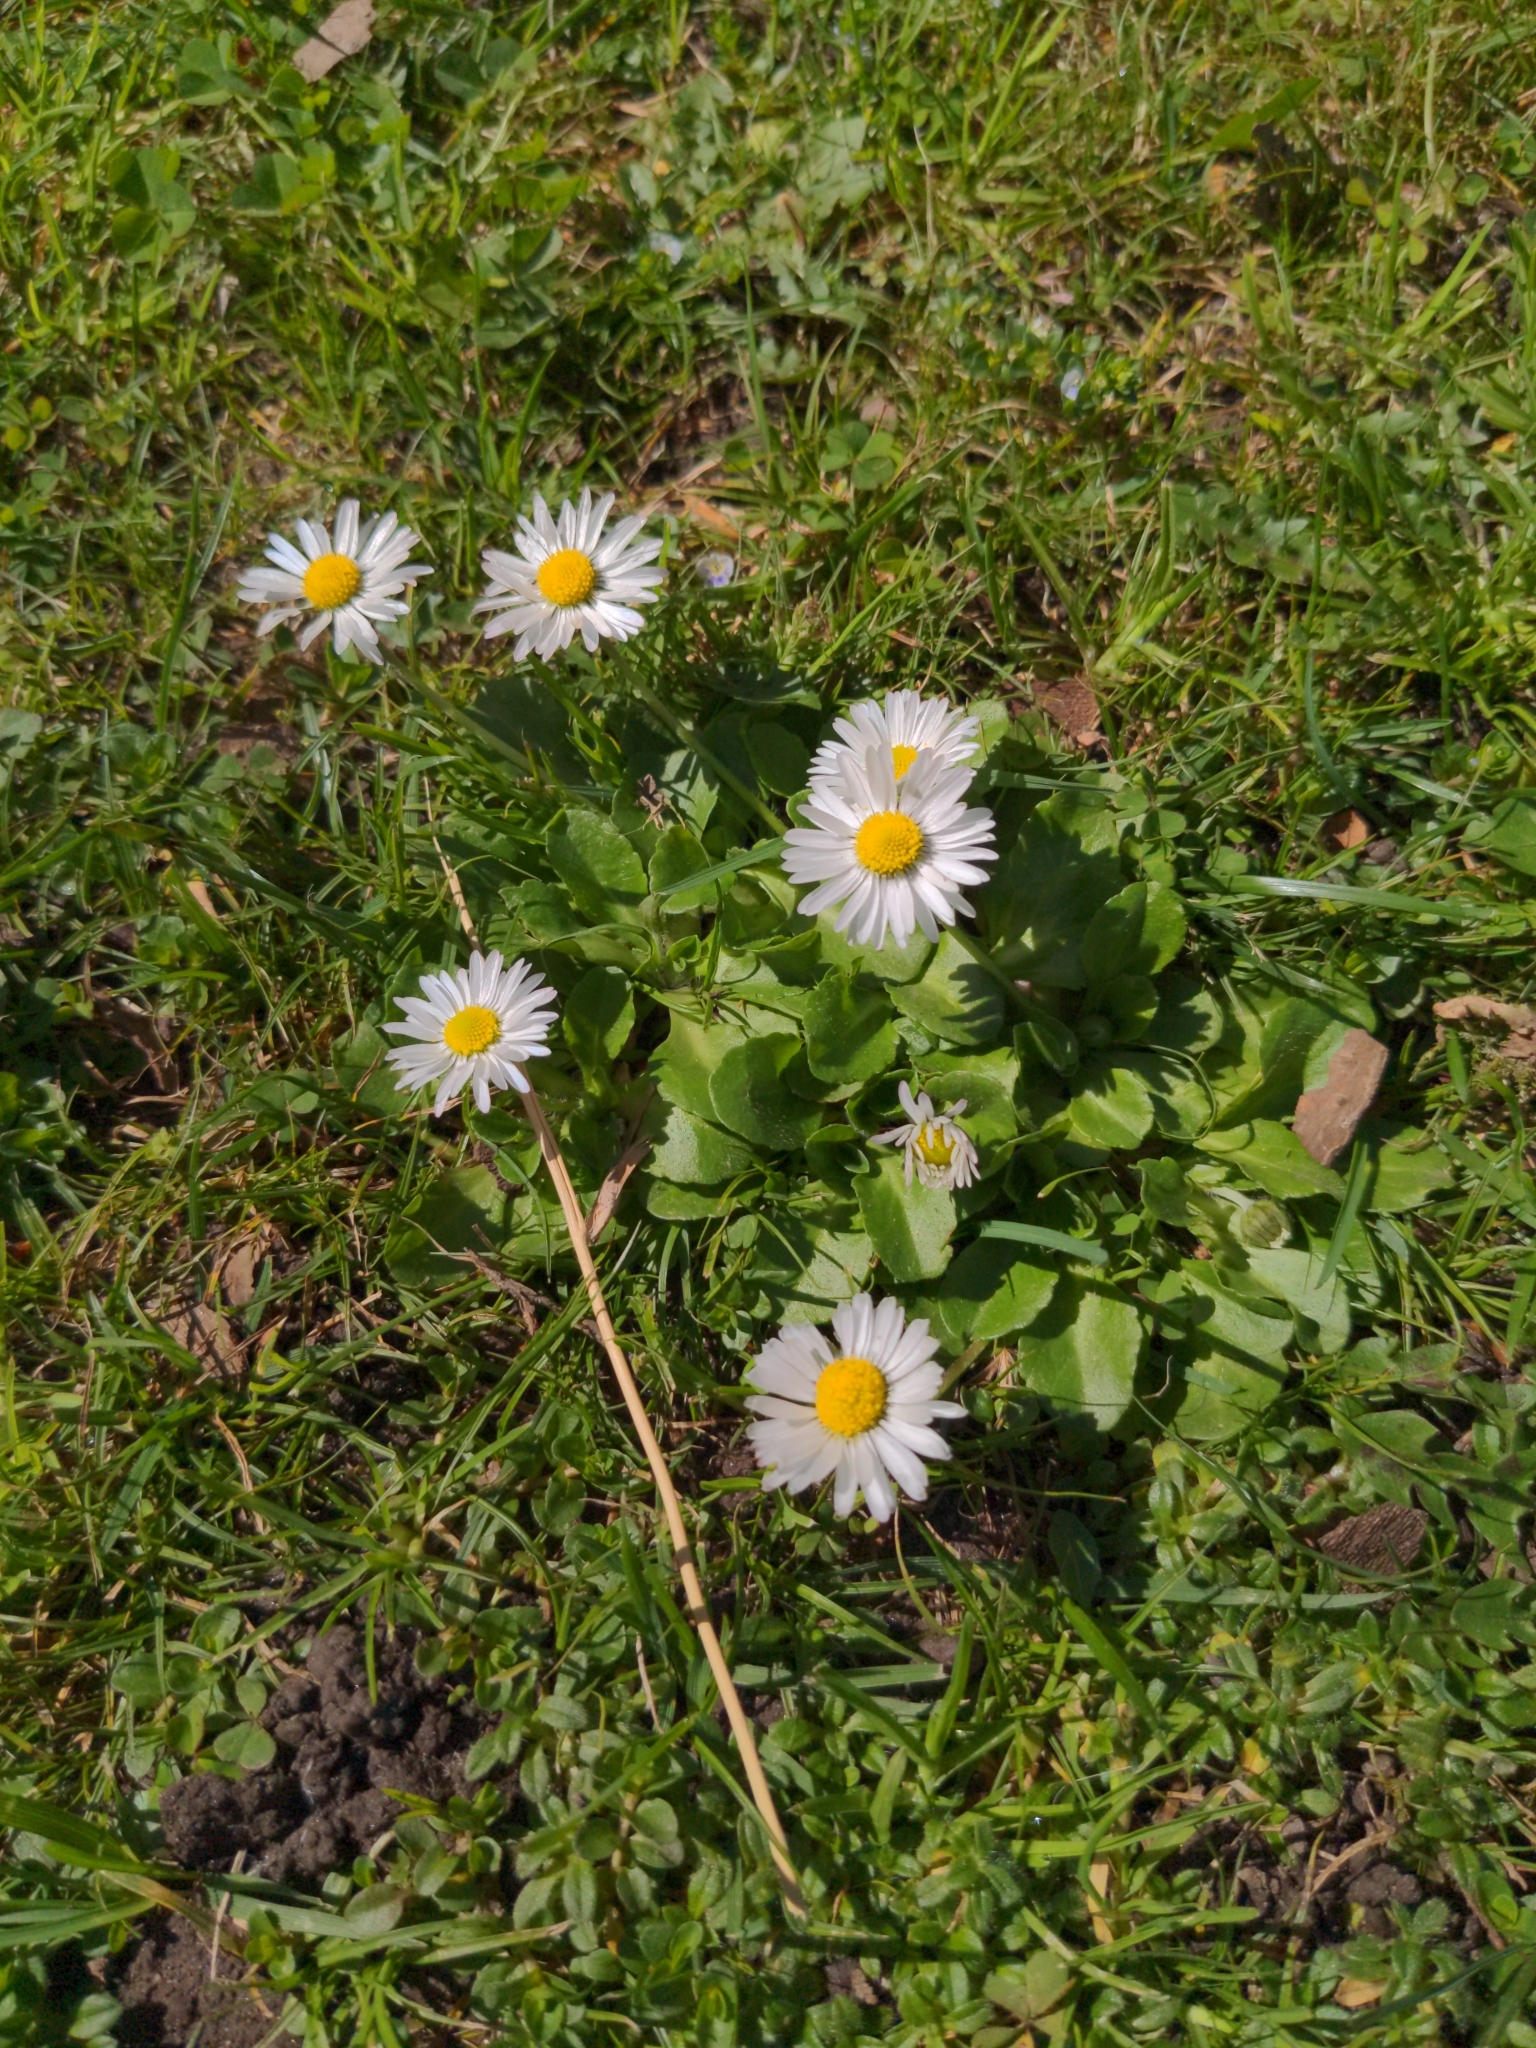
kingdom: Plantae
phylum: Tracheophyta
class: Magnoliopsida
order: Asterales
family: Asteraceae
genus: Bellis
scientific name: Bellis perennis
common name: Lawndaisy
